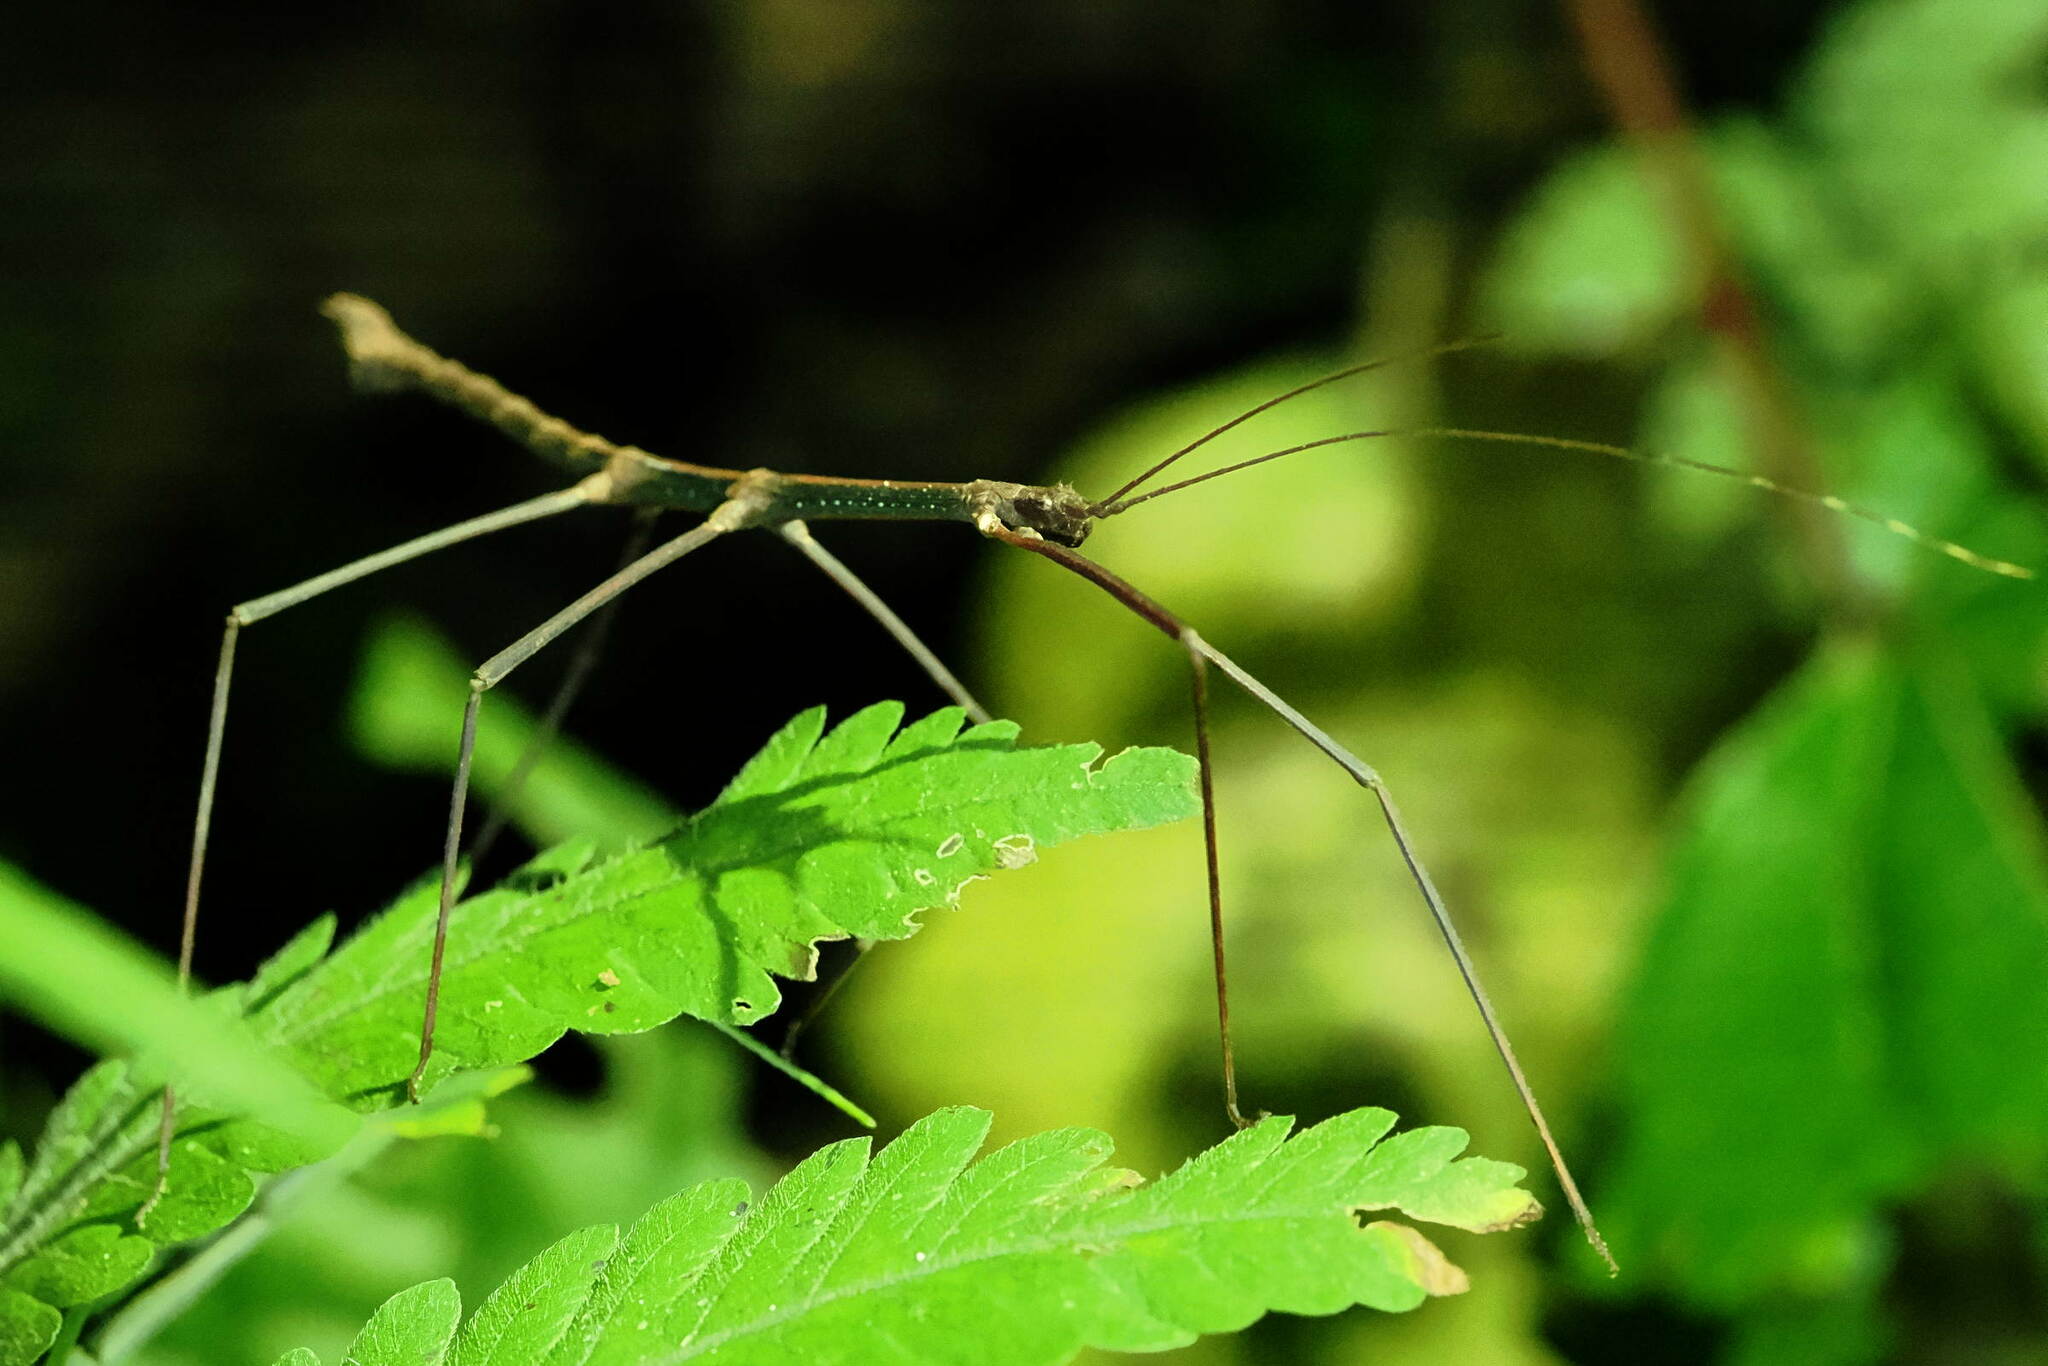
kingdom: Animalia
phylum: Arthropoda
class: Insecta
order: Phasmida
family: Diapheromeridae
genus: Ocnophiloidea
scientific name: Ocnophiloidea regularis
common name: Trinidad twig
